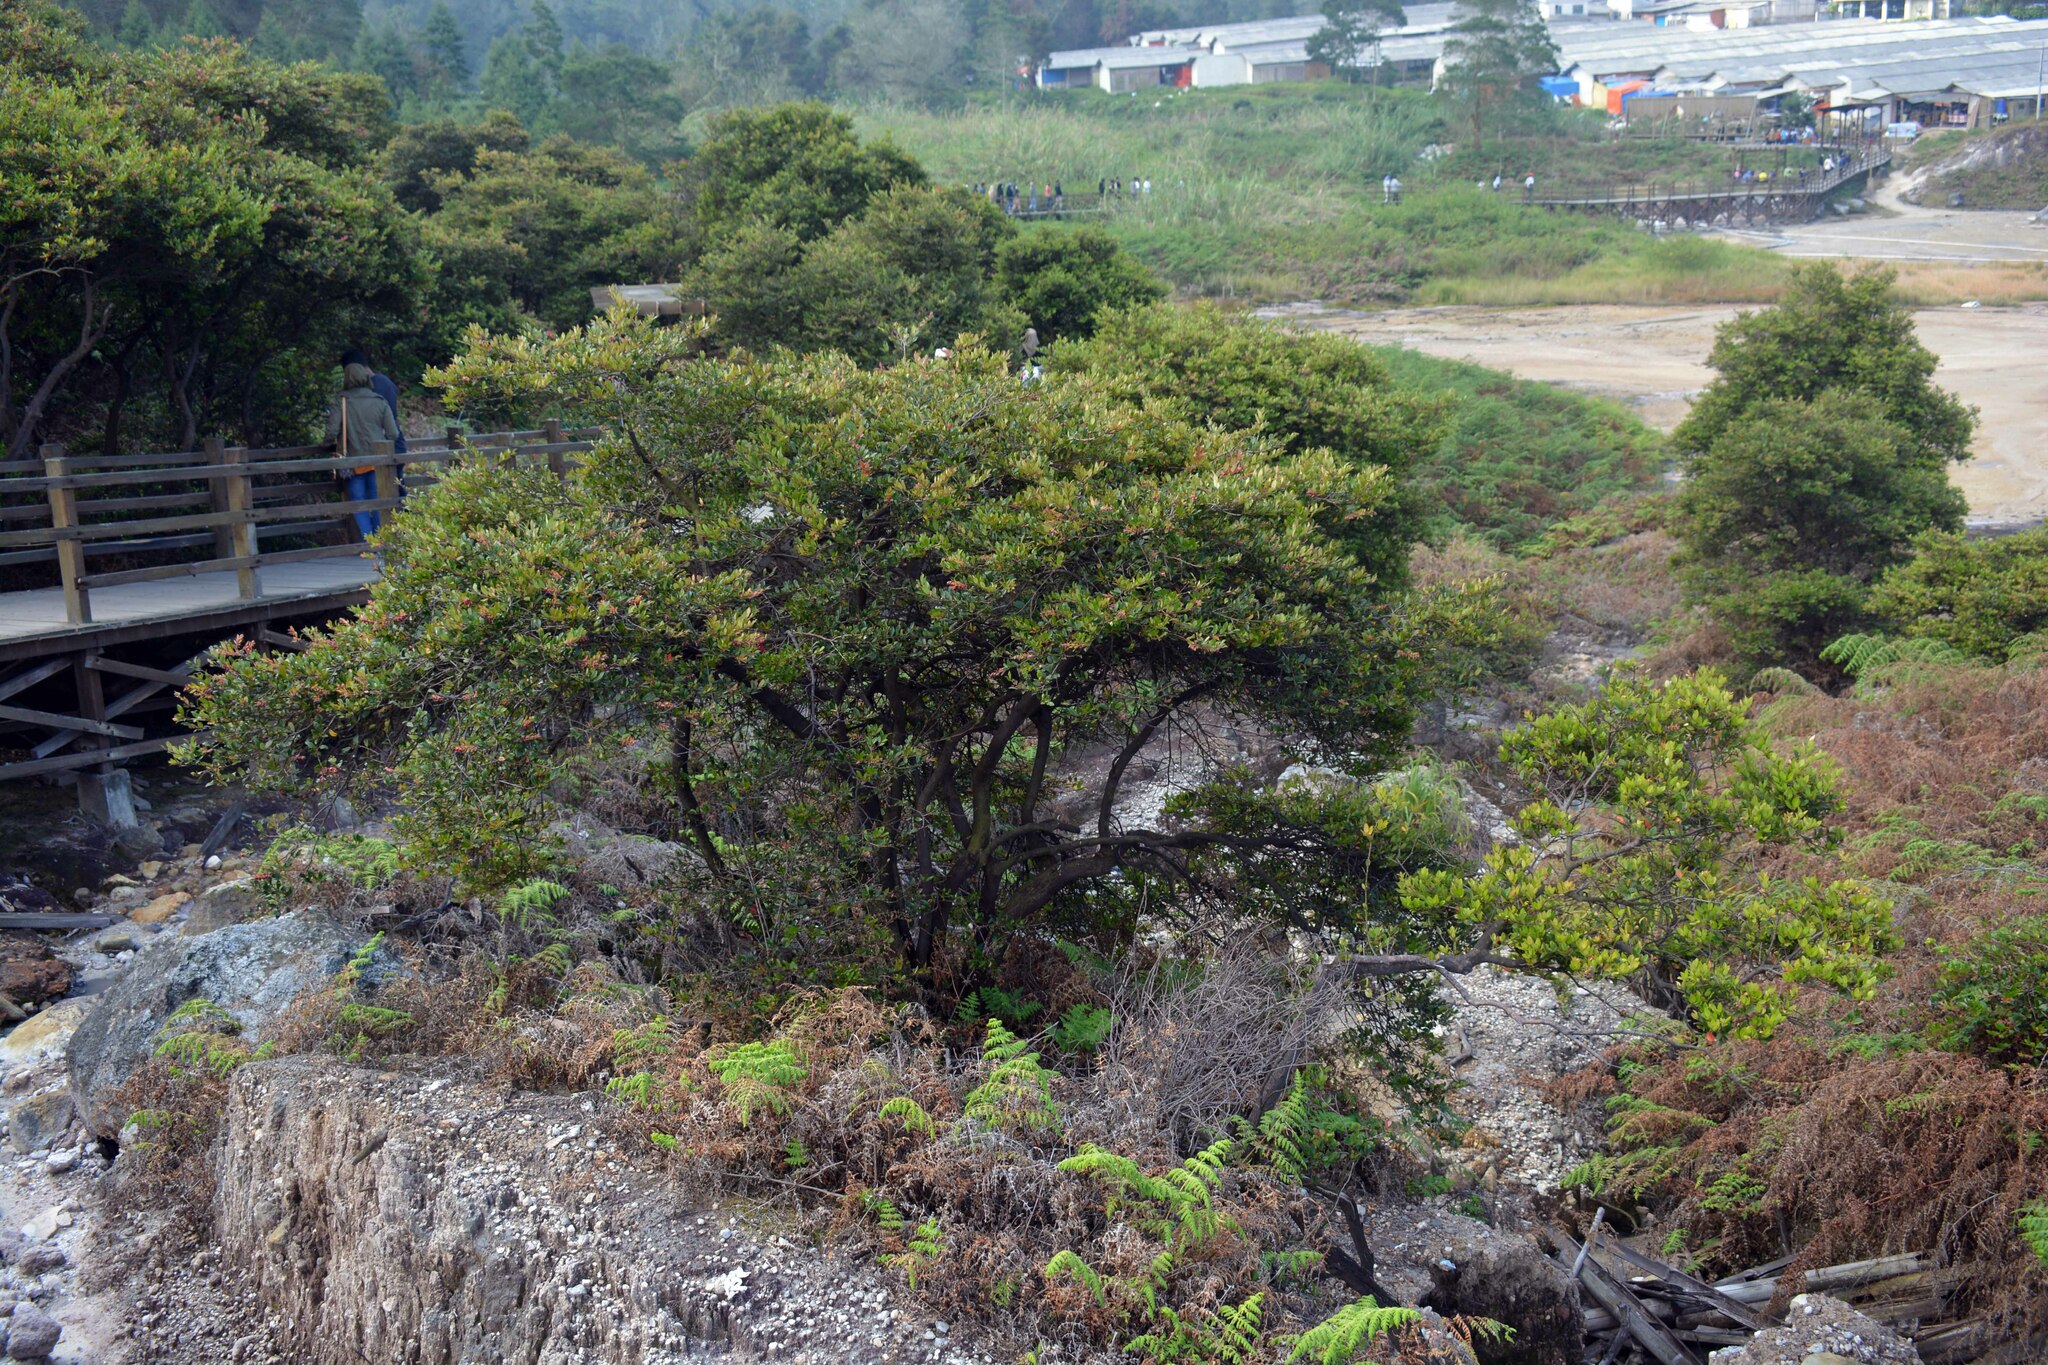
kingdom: Plantae
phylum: Tracheophyta
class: Magnoliopsida
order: Ericales
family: Ericaceae
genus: Vaccinium
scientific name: Vaccinium varingiifolium
